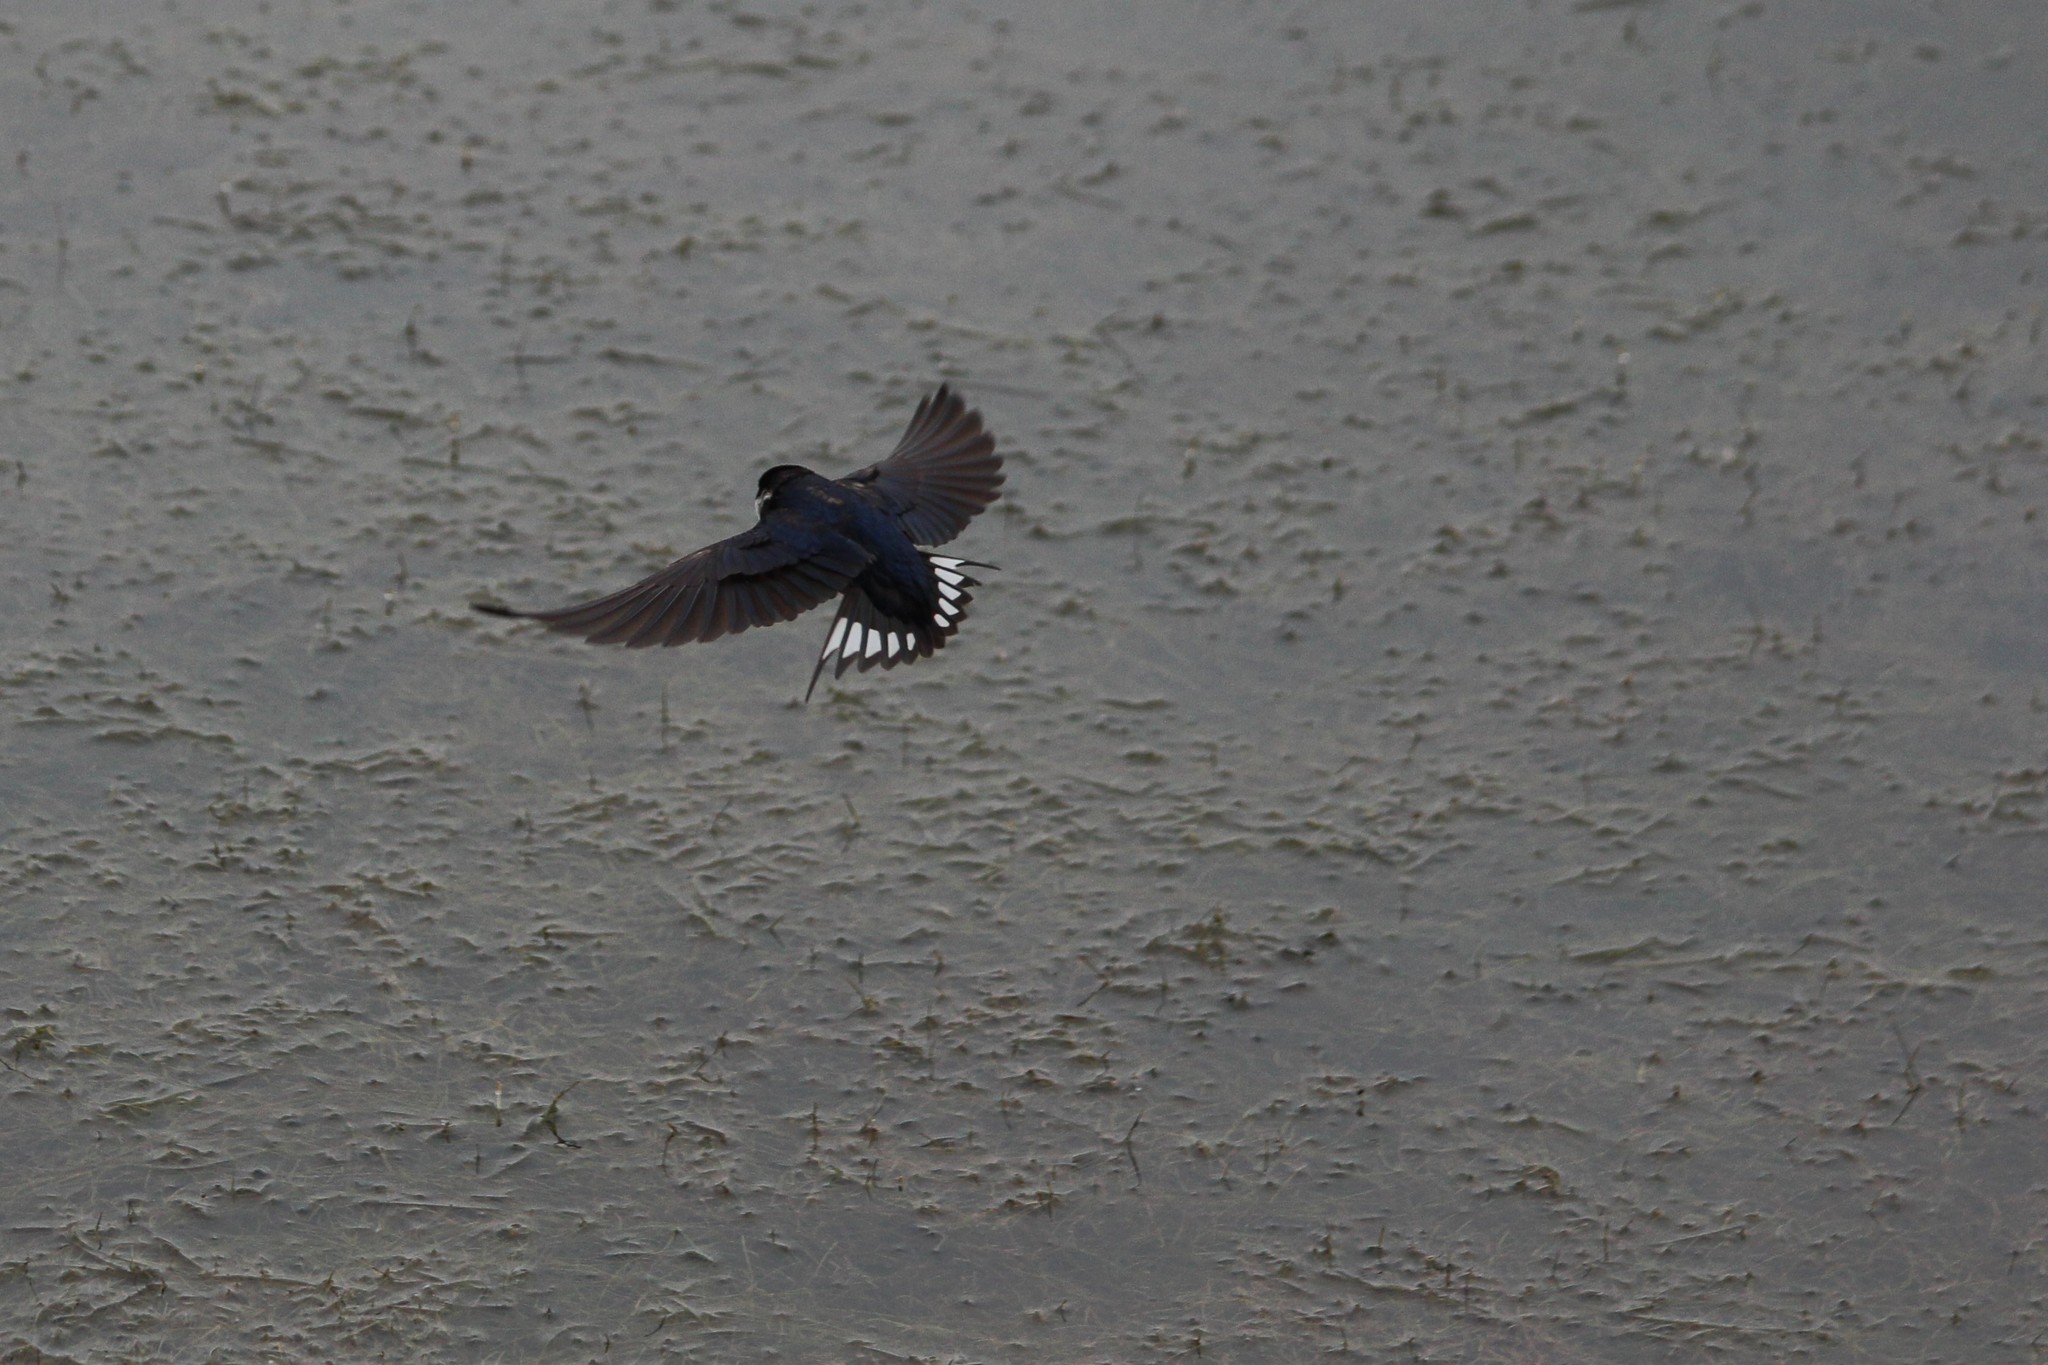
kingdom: Animalia
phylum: Chordata
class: Aves
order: Passeriformes
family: Hirundinidae
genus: Hirundo
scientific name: Hirundo albigularis
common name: White-throated swallow
